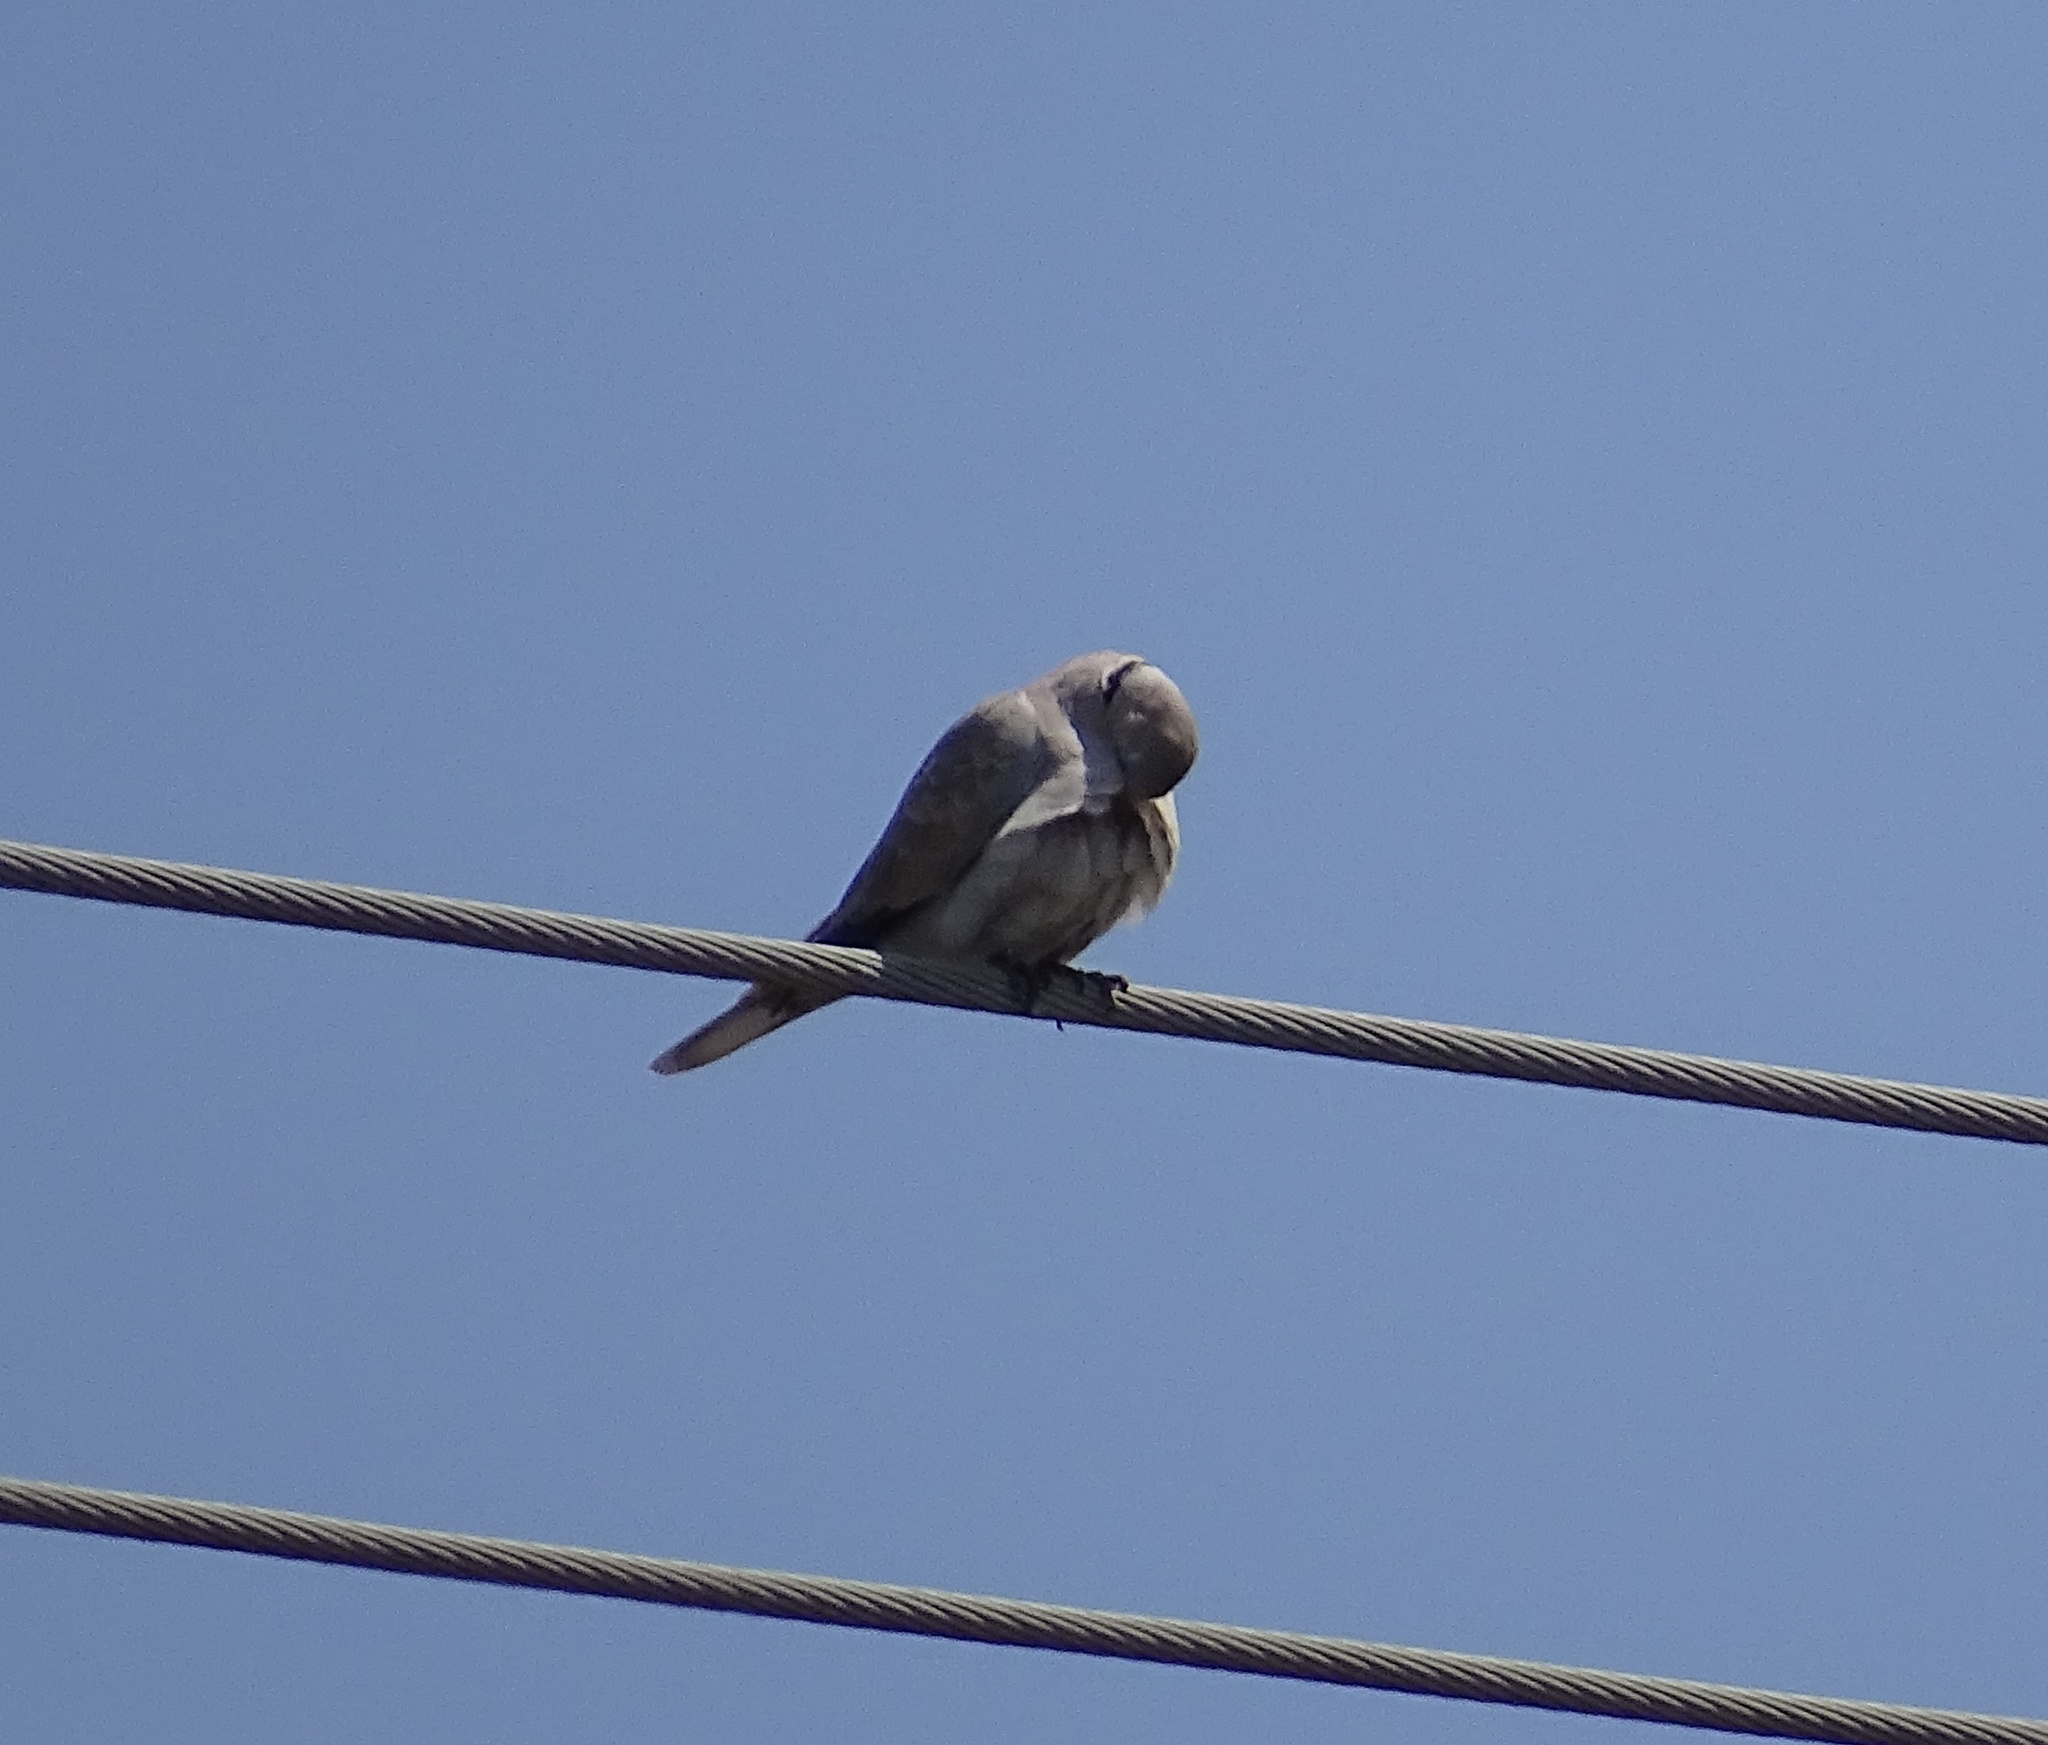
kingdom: Animalia
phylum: Chordata
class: Aves
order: Columbiformes
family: Columbidae
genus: Streptopelia
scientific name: Streptopelia decaocto
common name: Eurasian collared dove
